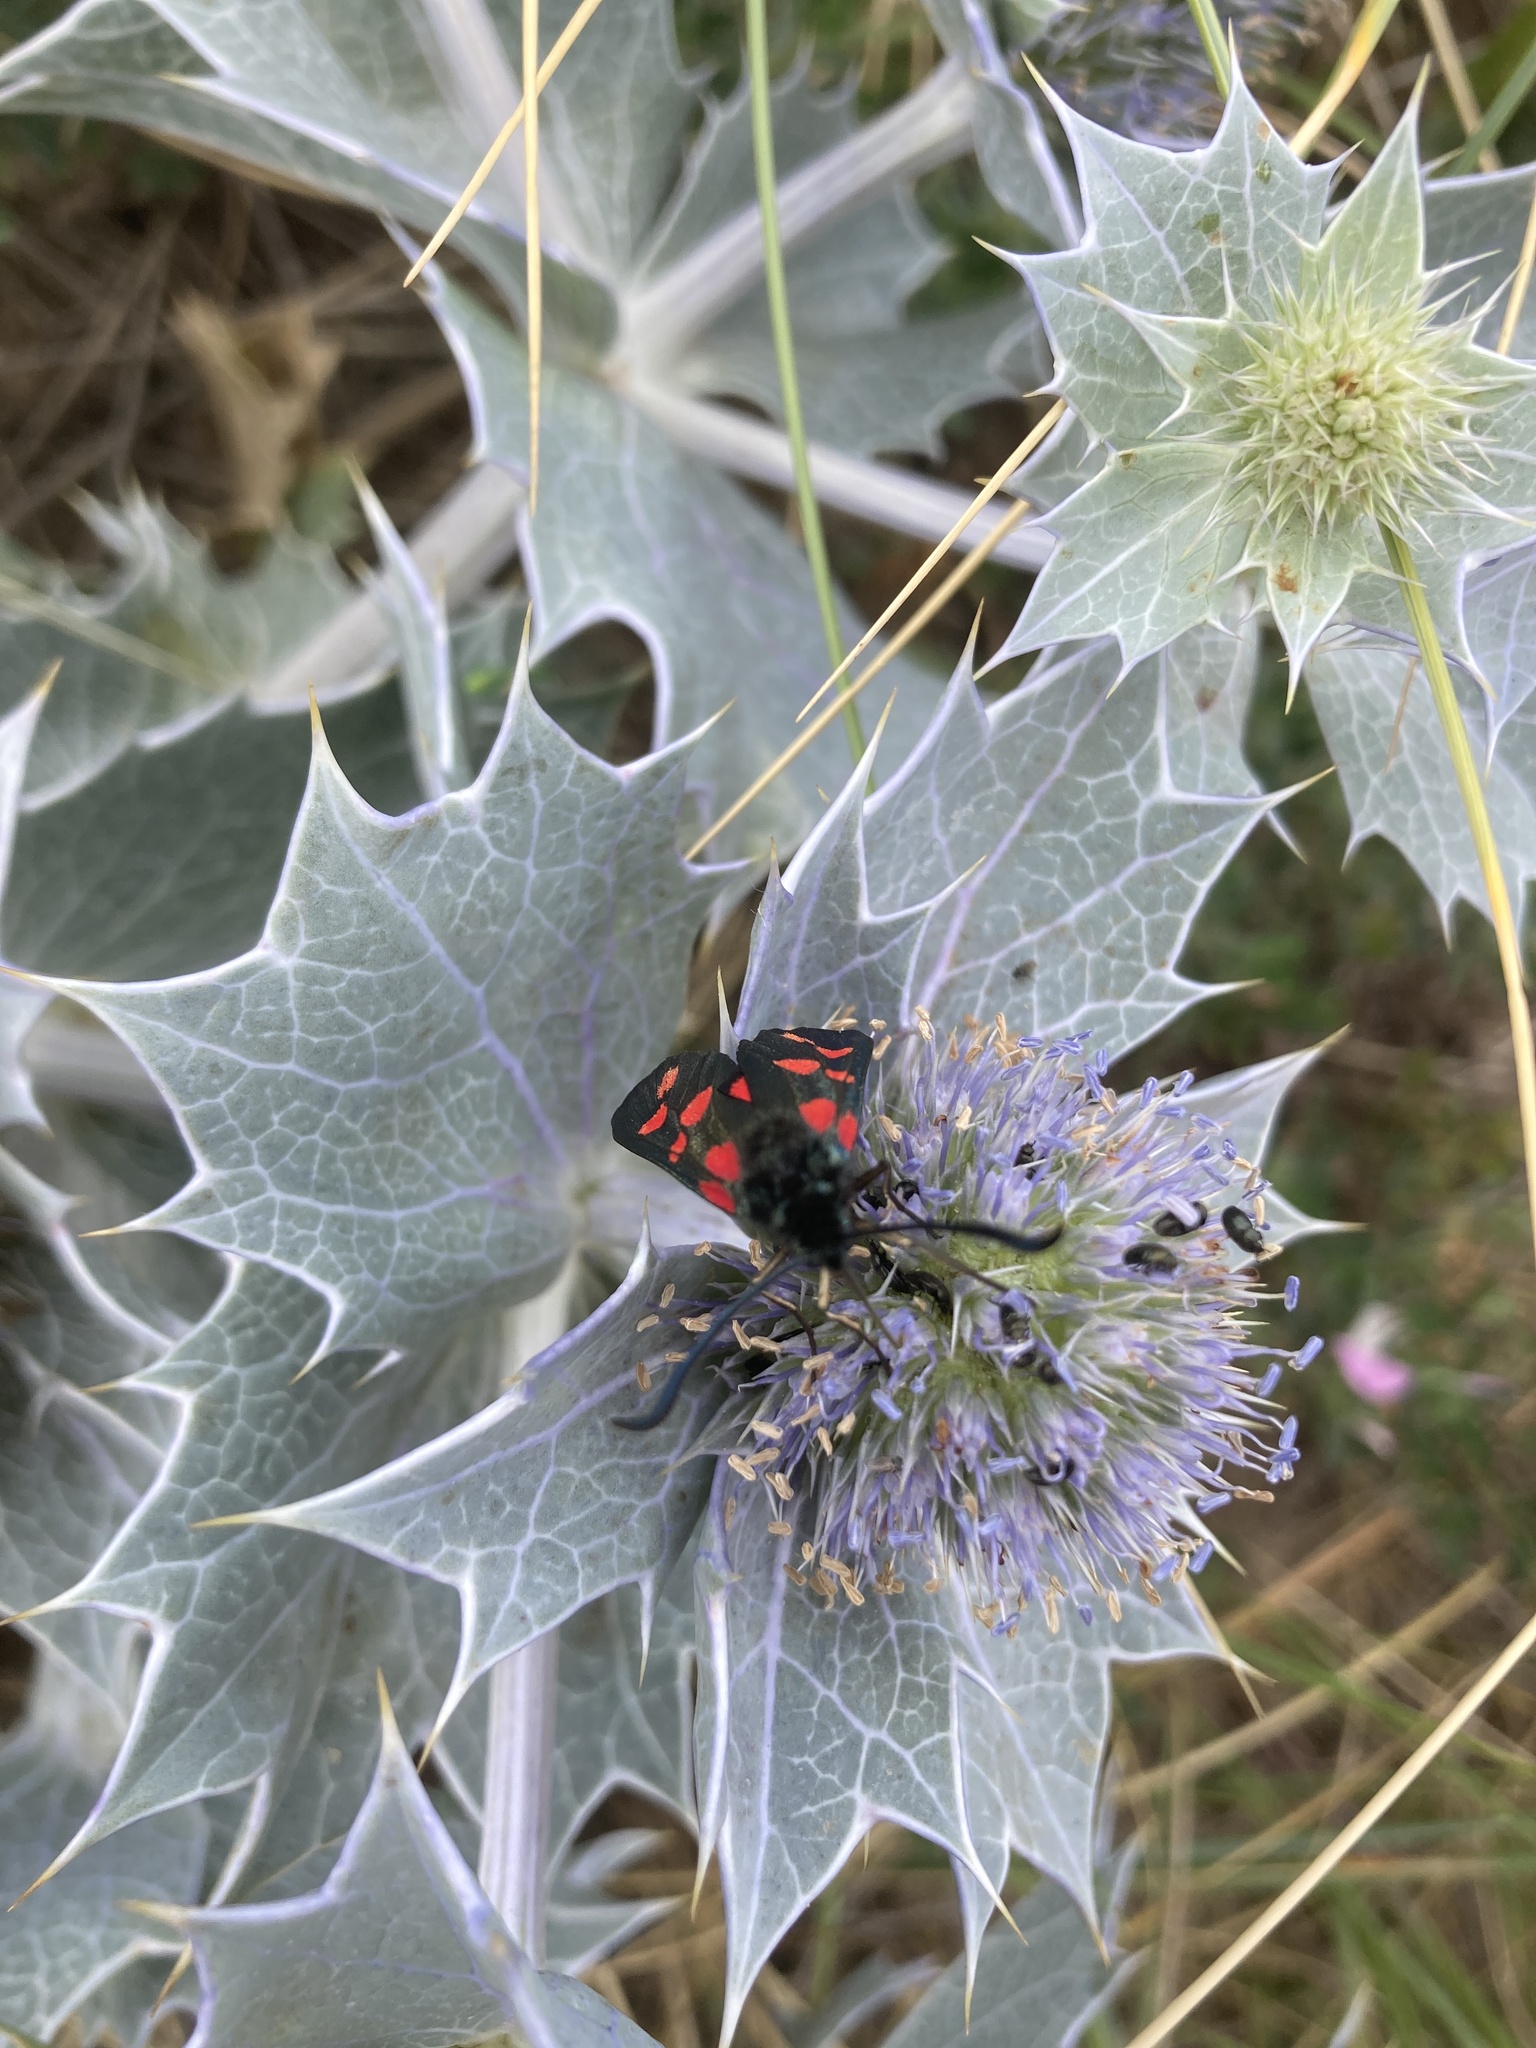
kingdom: Animalia
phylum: Arthropoda
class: Insecta
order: Lepidoptera
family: Zygaenidae
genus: Zygaena
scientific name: Zygaena filipendulae
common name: Six-spot burnet
